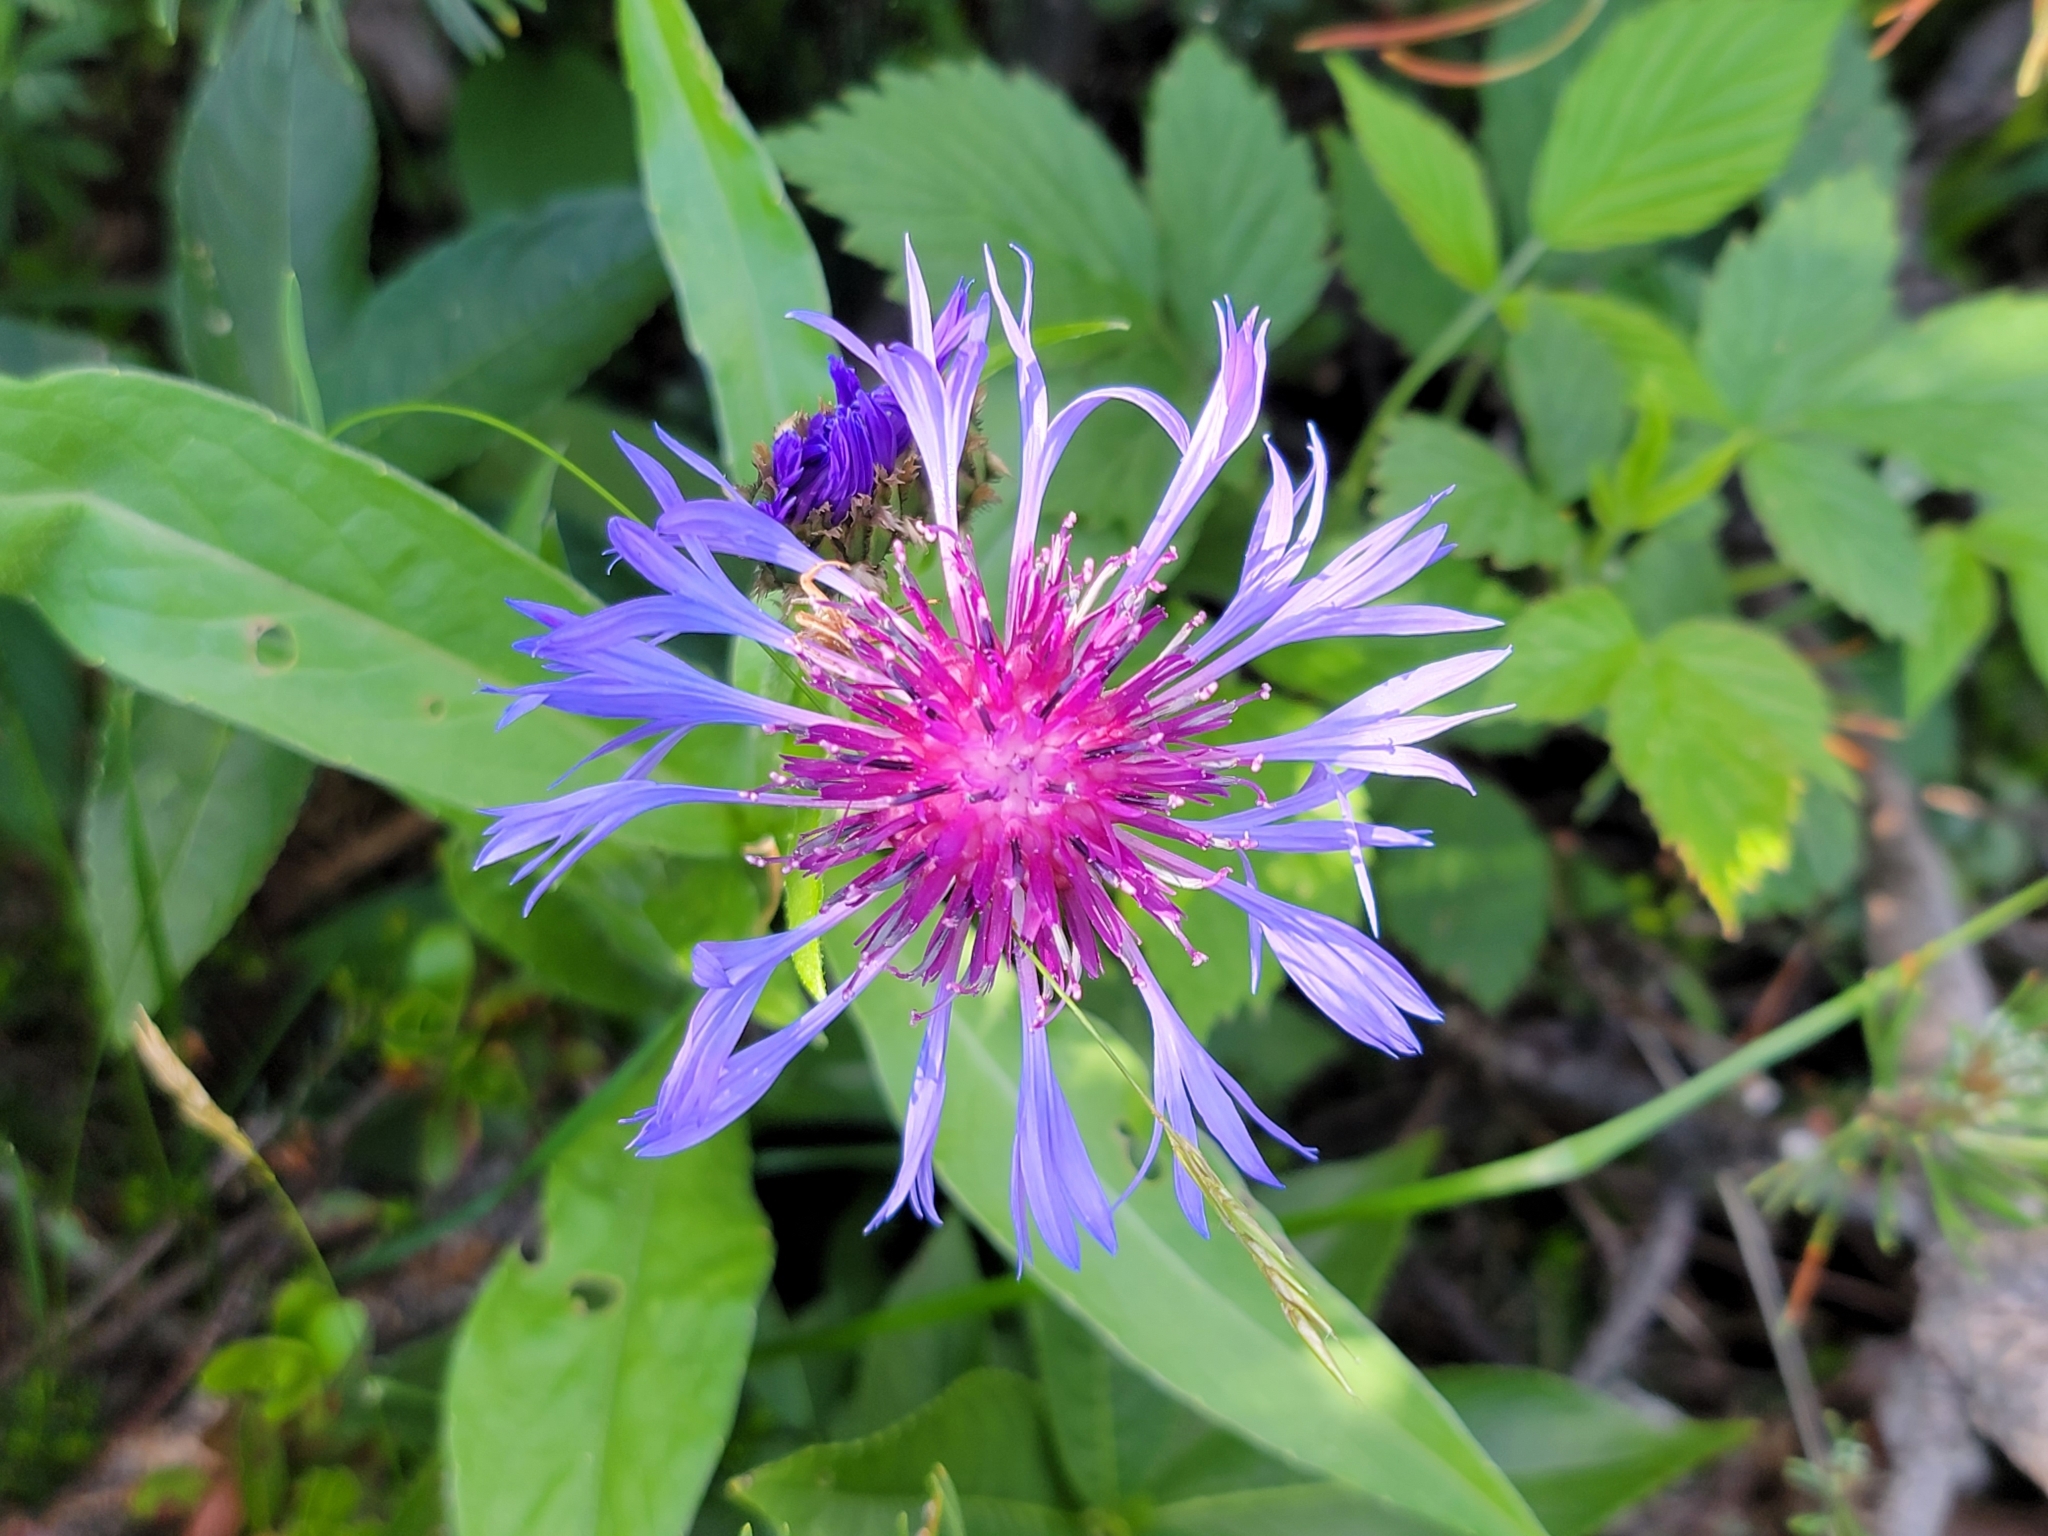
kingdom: Plantae
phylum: Tracheophyta
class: Magnoliopsida
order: Asterales
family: Asteraceae
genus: Centaurea
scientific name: Centaurea montana
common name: Perennial cornflower
